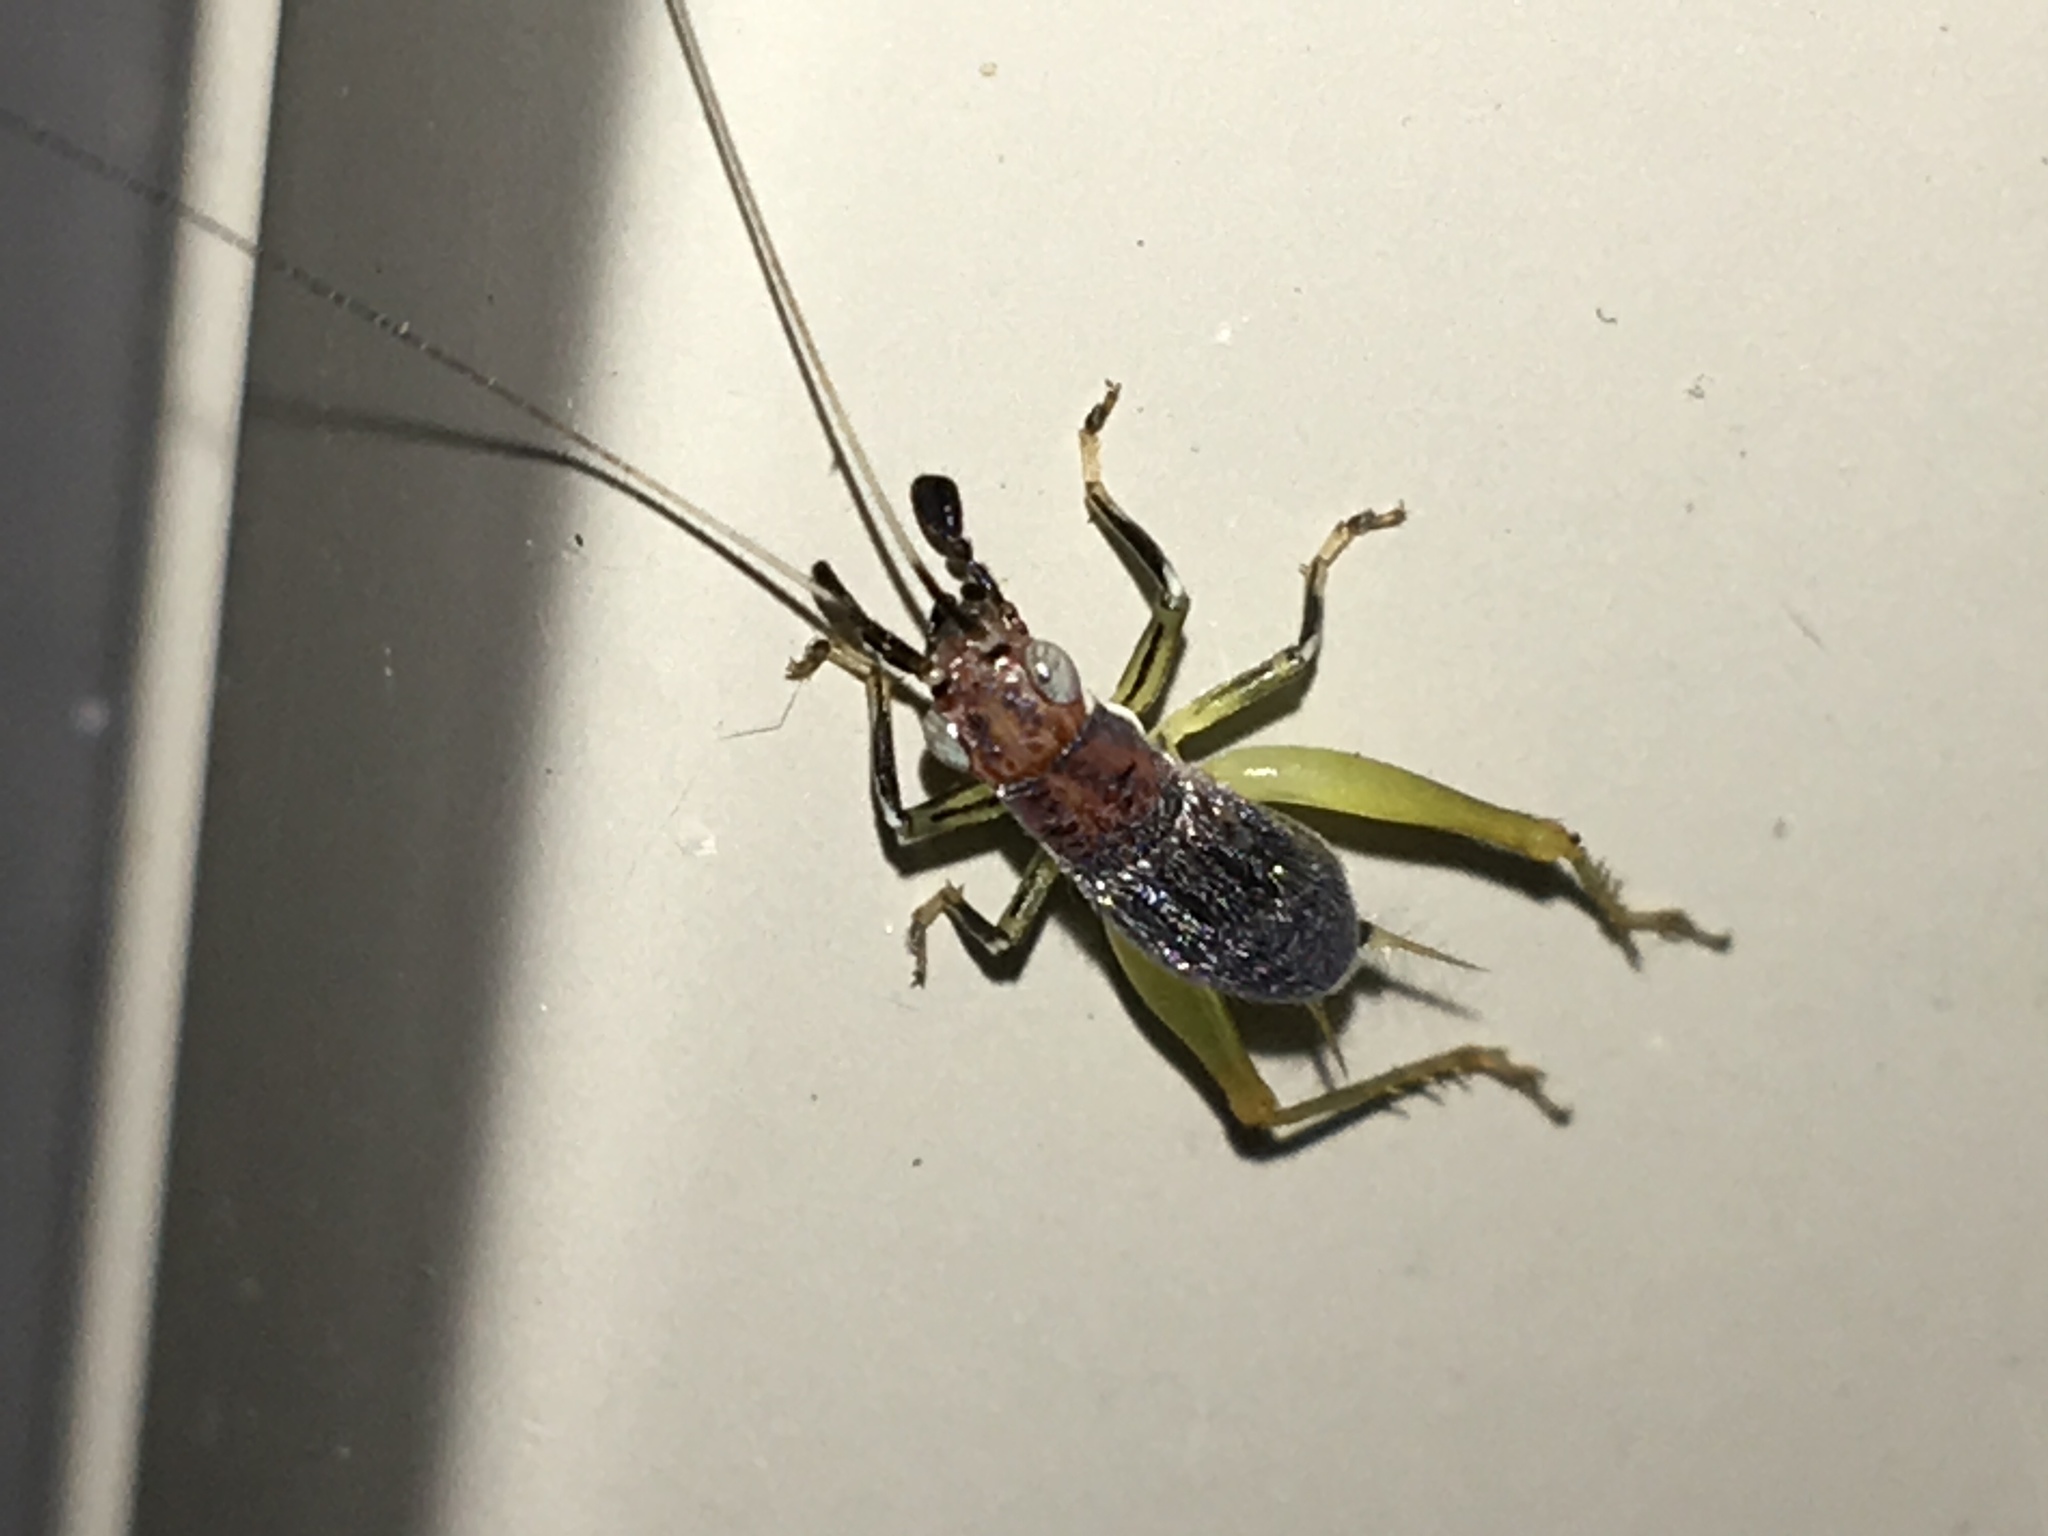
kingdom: Animalia
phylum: Arthropoda
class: Insecta
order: Orthoptera
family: Trigonidiidae
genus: Phyllopalpus
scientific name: Phyllopalpus pulchellus
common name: Handsome trig
